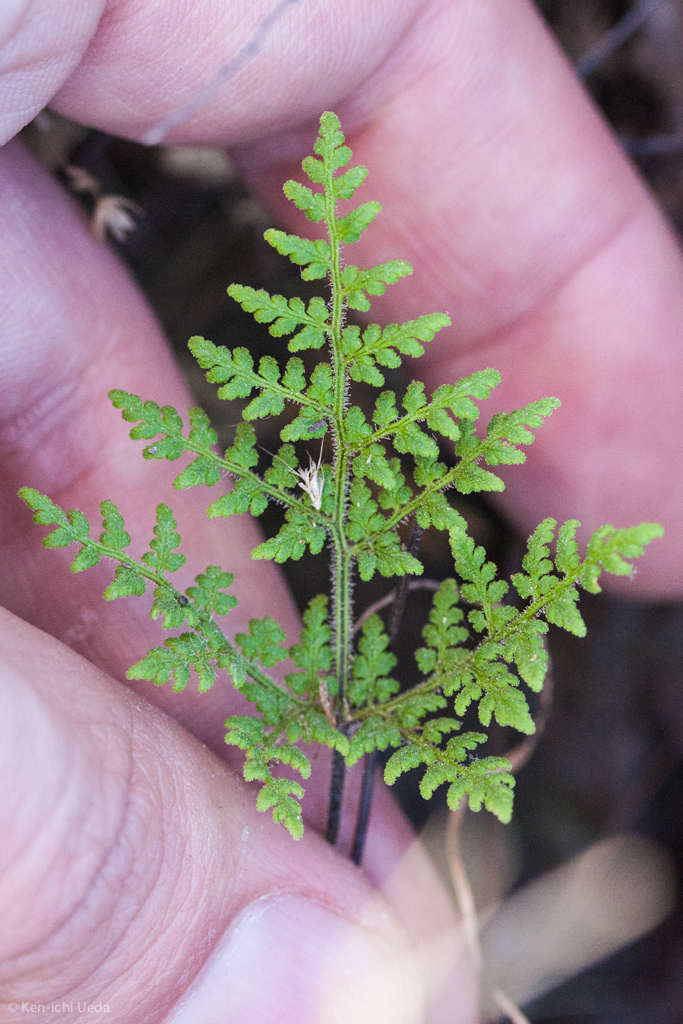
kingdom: Plantae
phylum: Tracheophyta
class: Polypodiopsida
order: Polypodiales
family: Pteridaceae
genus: Gaga
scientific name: Gaga kaulfussii
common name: Glandular lip fern
